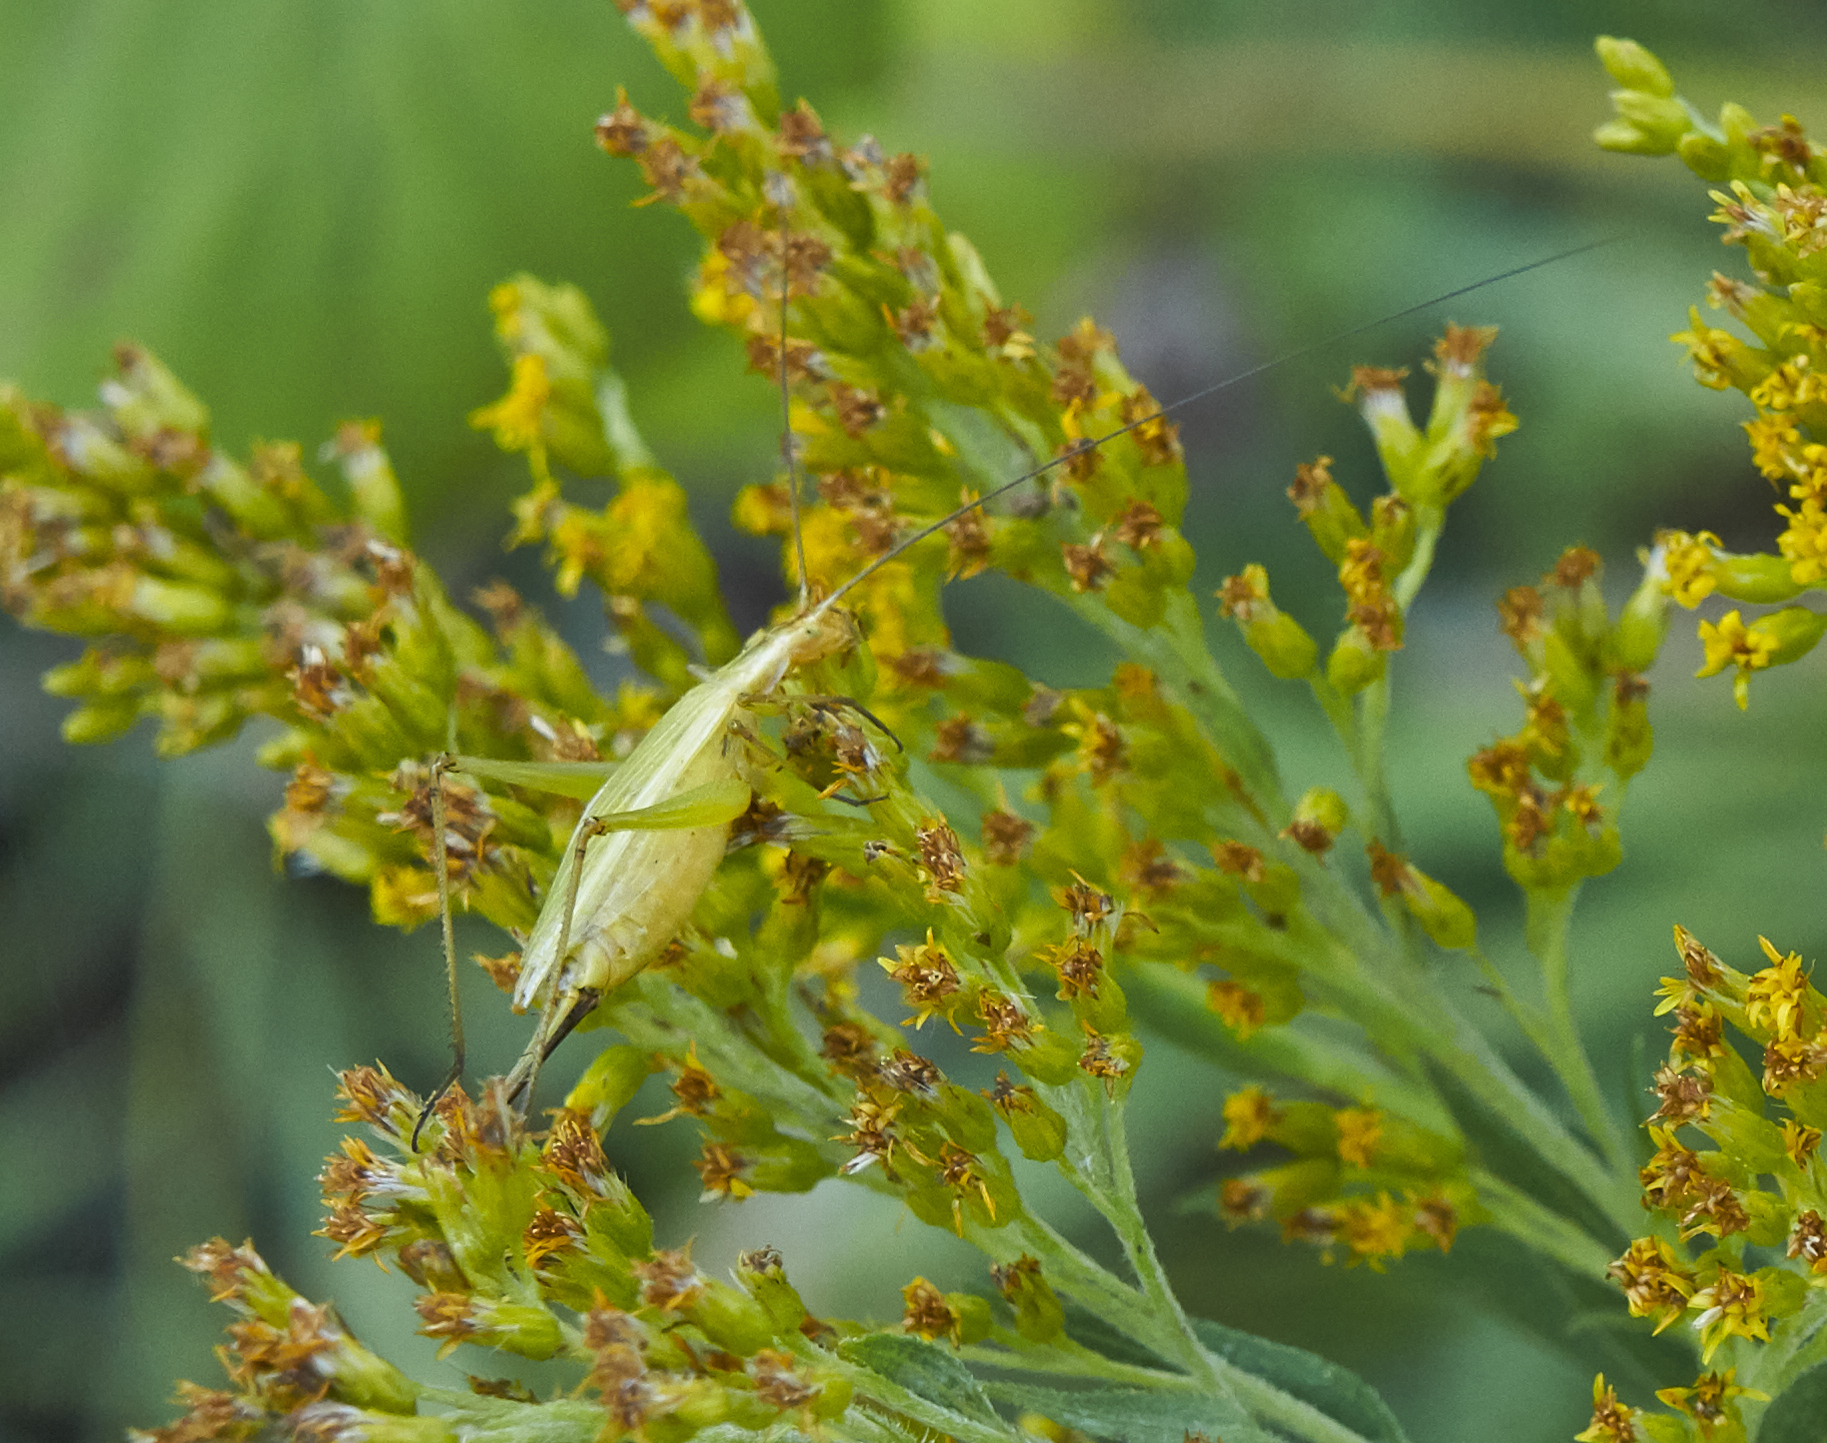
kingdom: Animalia
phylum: Arthropoda
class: Insecta
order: Orthoptera
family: Gryllidae
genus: Oecanthus
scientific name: Oecanthus nigricornis
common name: Black-horned tree cricket
